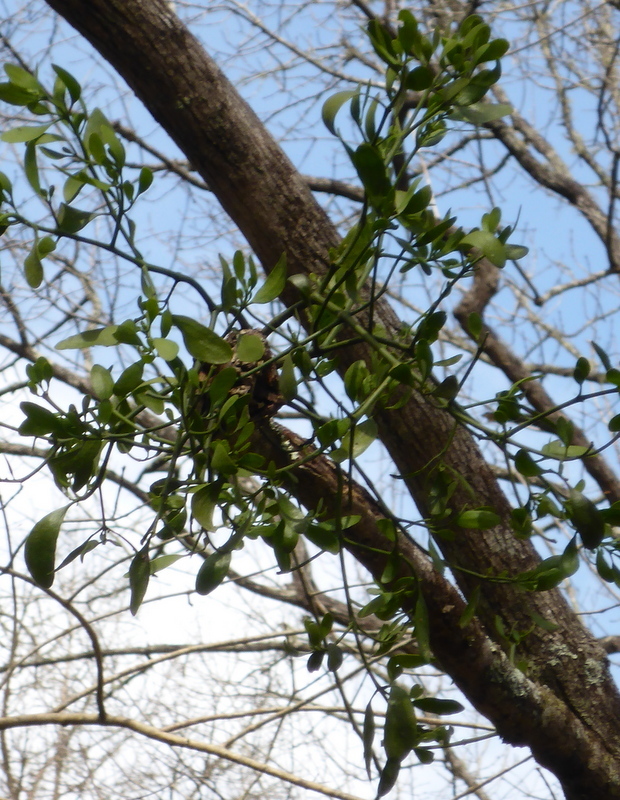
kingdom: Plantae
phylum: Tracheophyta
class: Magnoliopsida
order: Santalales
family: Viscaceae
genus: Phoradendron
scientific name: Phoradendron leucarpum
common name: Pacific mistletoe
